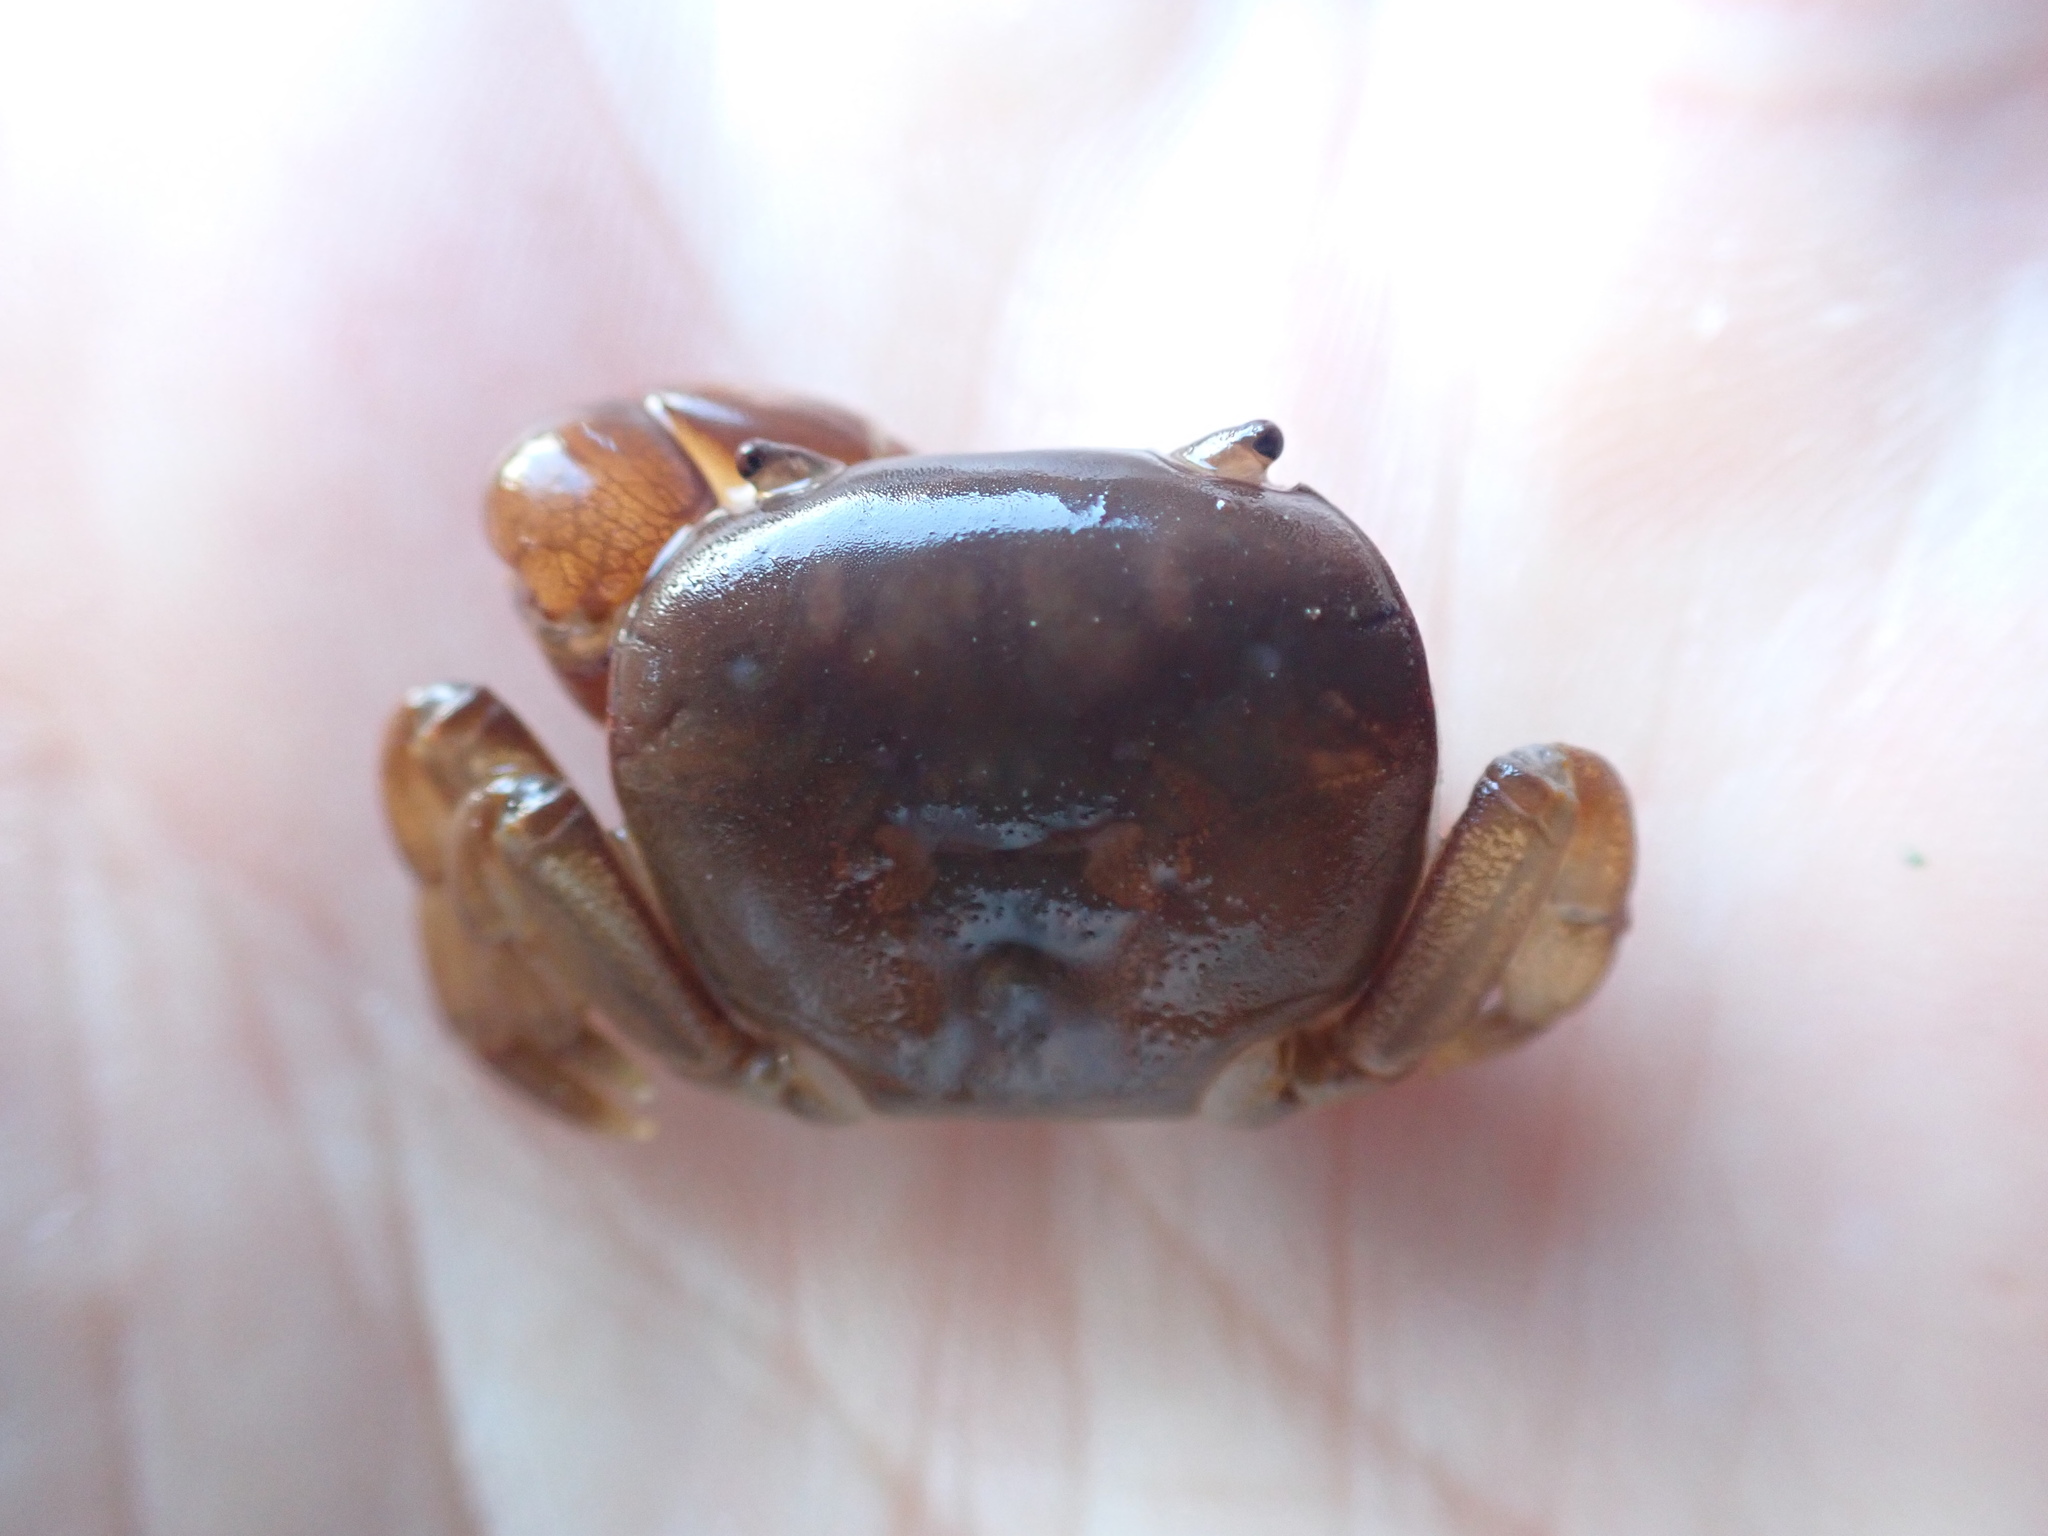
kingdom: Animalia
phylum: Arthropoda
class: Malacostraca
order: Decapoda
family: Varunidae
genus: Cyclograpsus
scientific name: Cyclograpsus insularum
